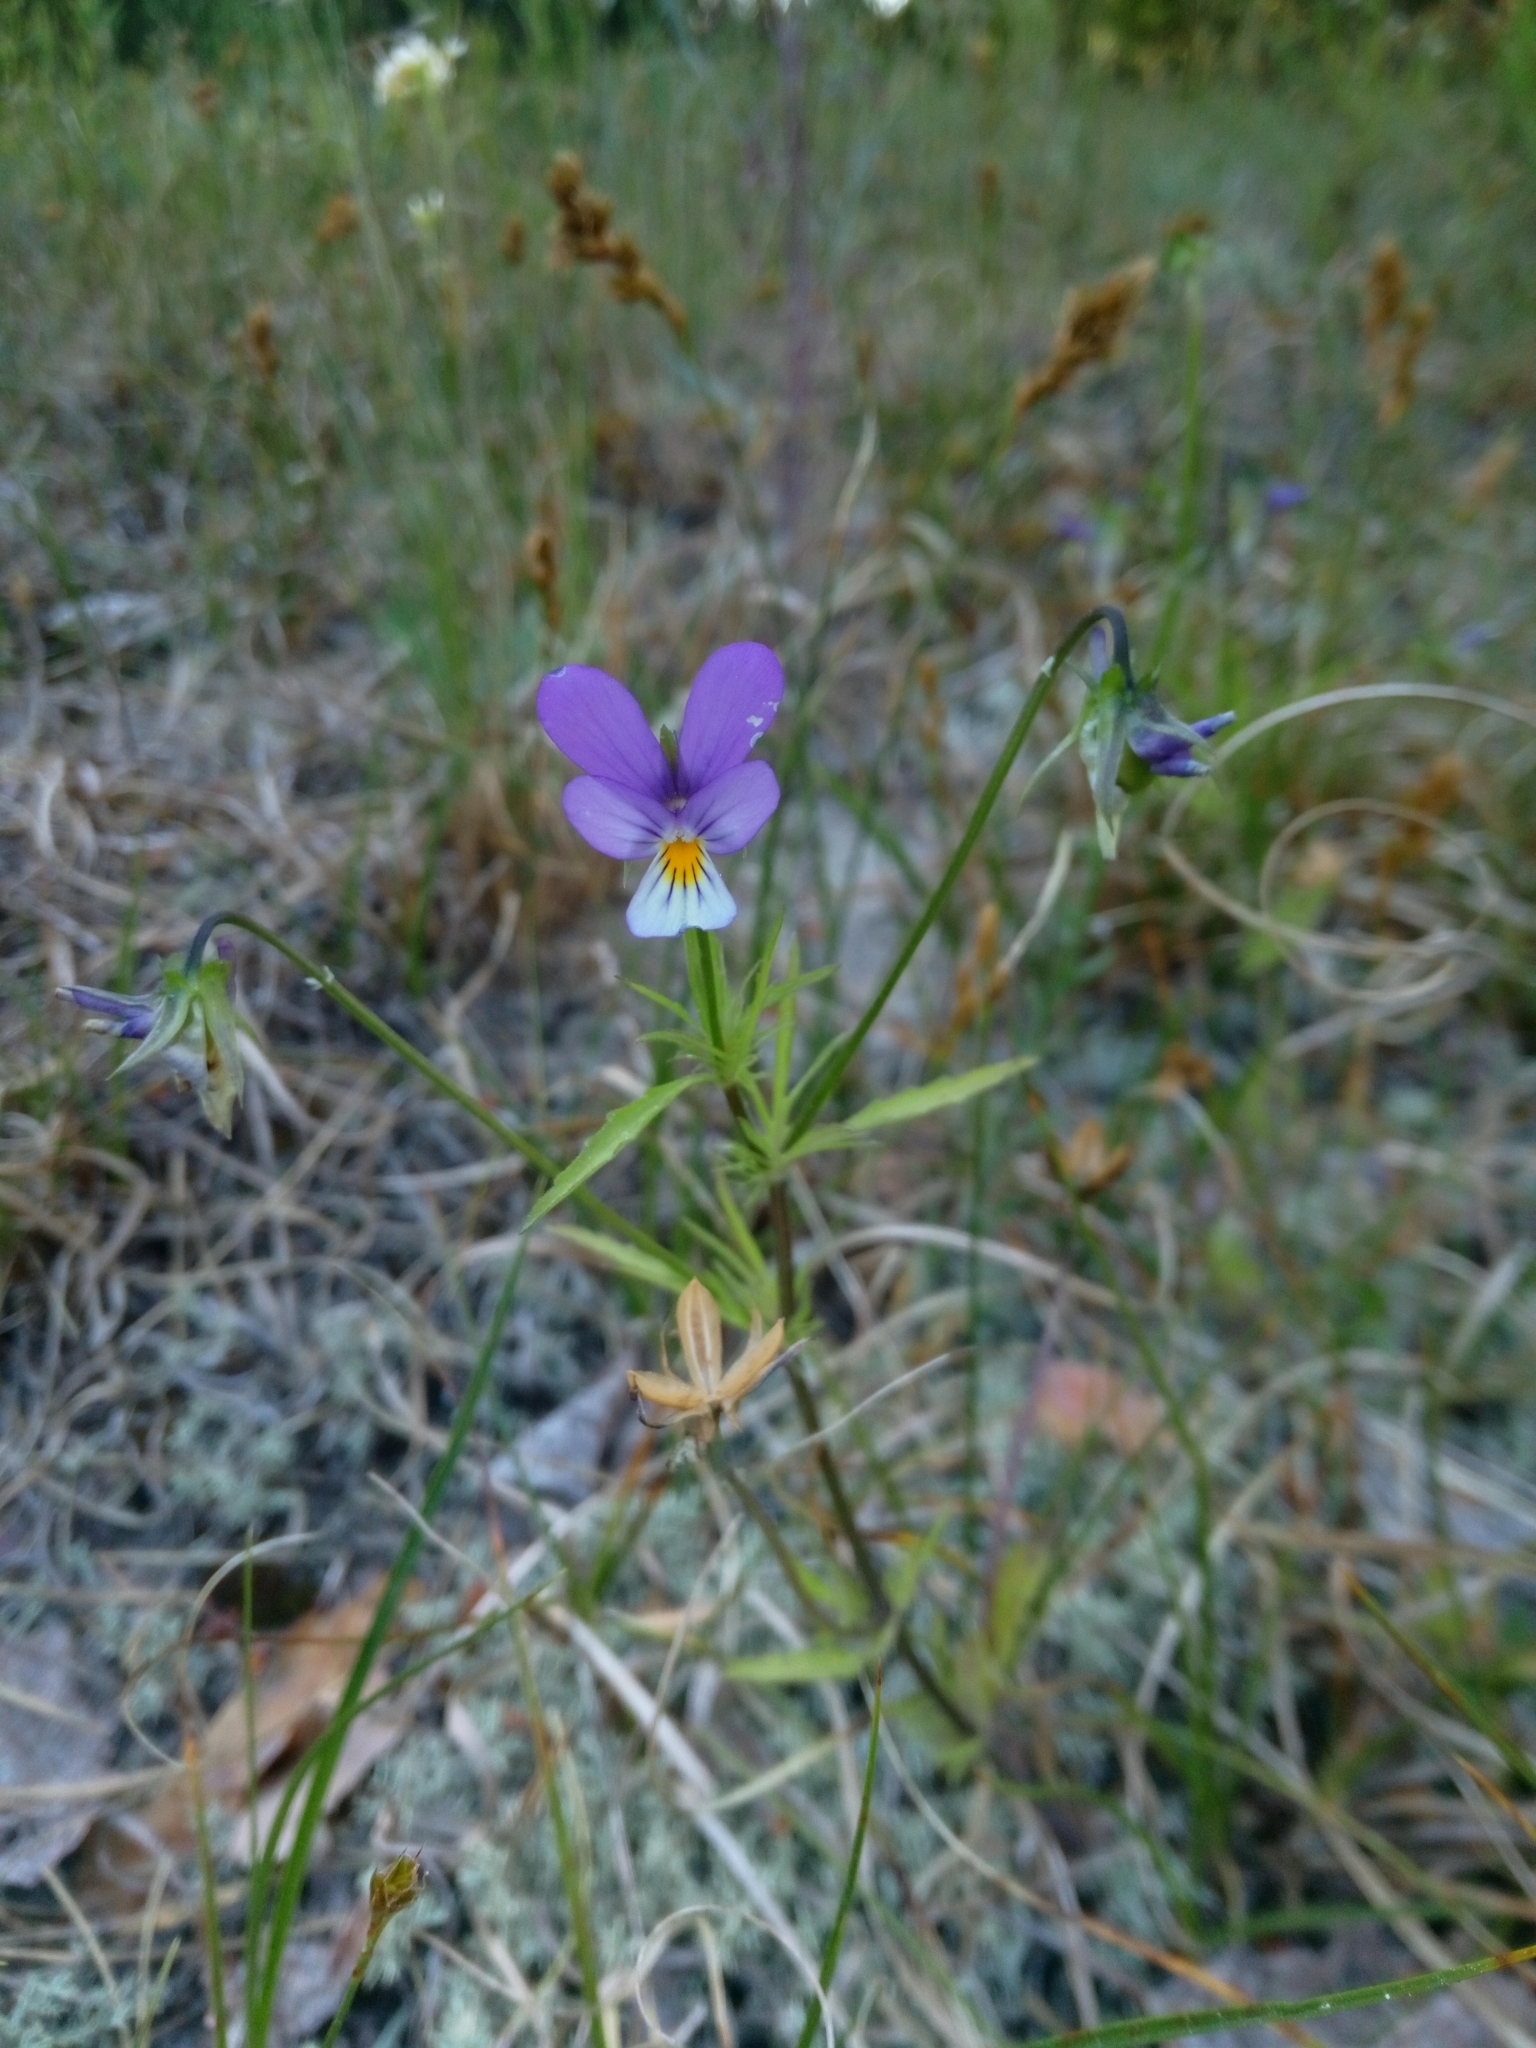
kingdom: Plantae
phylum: Tracheophyta
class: Magnoliopsida
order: Malpighiales
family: Violaceae
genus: Viola
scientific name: Viola tricolor
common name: Pansy
